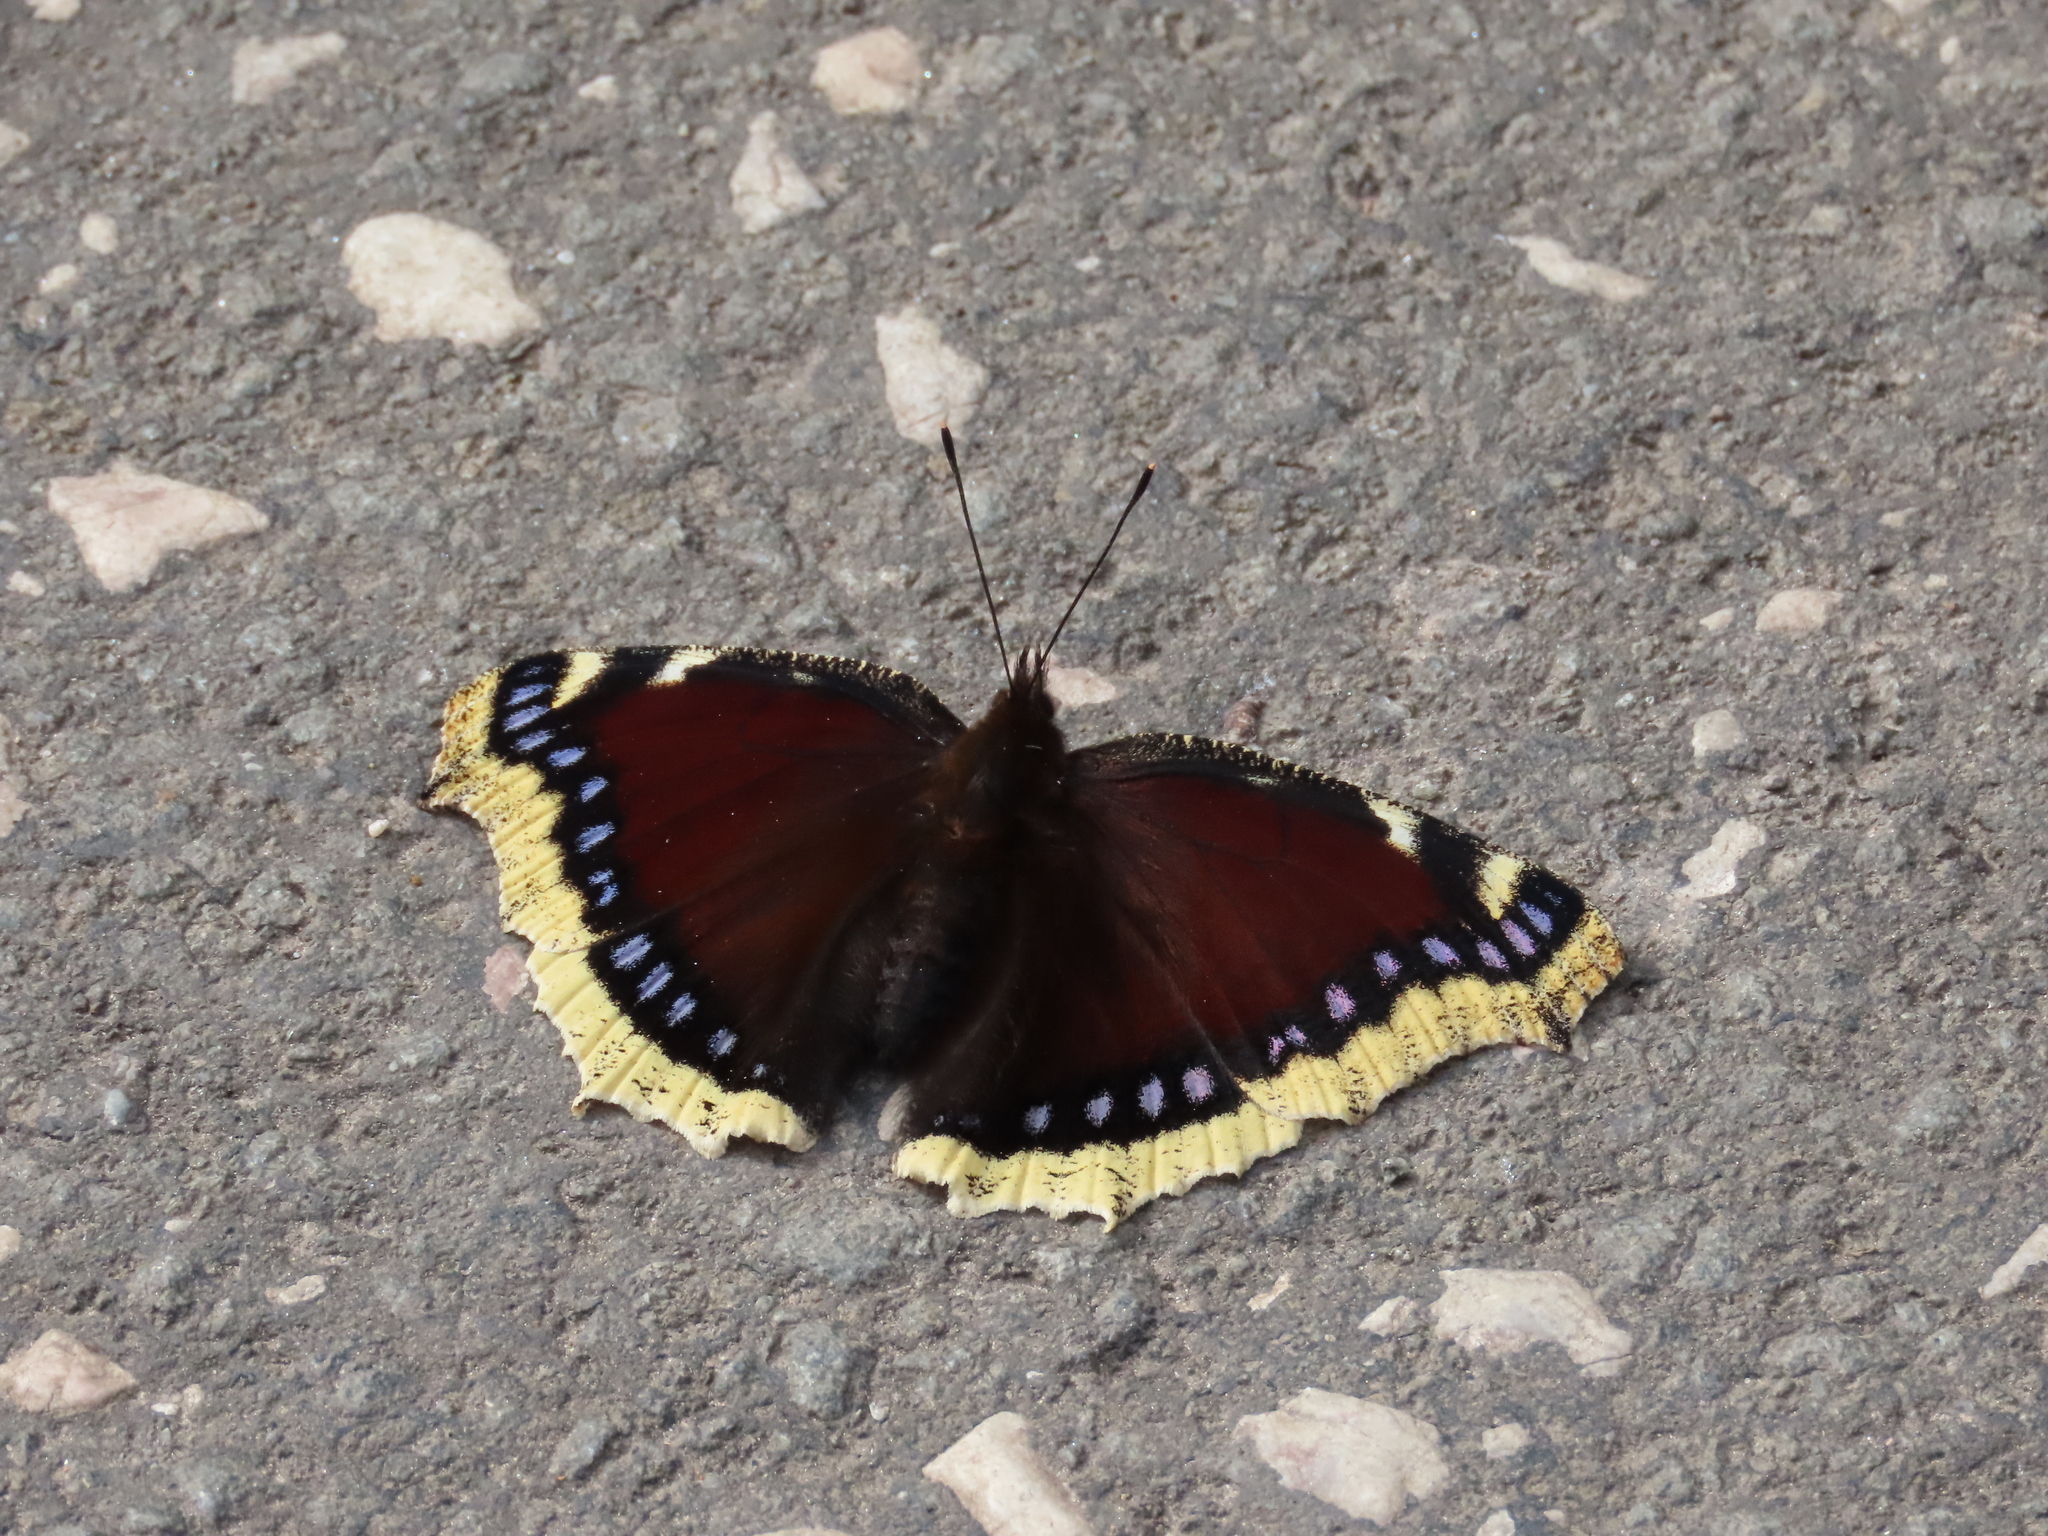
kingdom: Animalia
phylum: Arthropoda
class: Insecta
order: Lepidoptera
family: Nymphalidae
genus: Nymphalis
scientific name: Nymphalis antiopa
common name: Camberwell beauty
